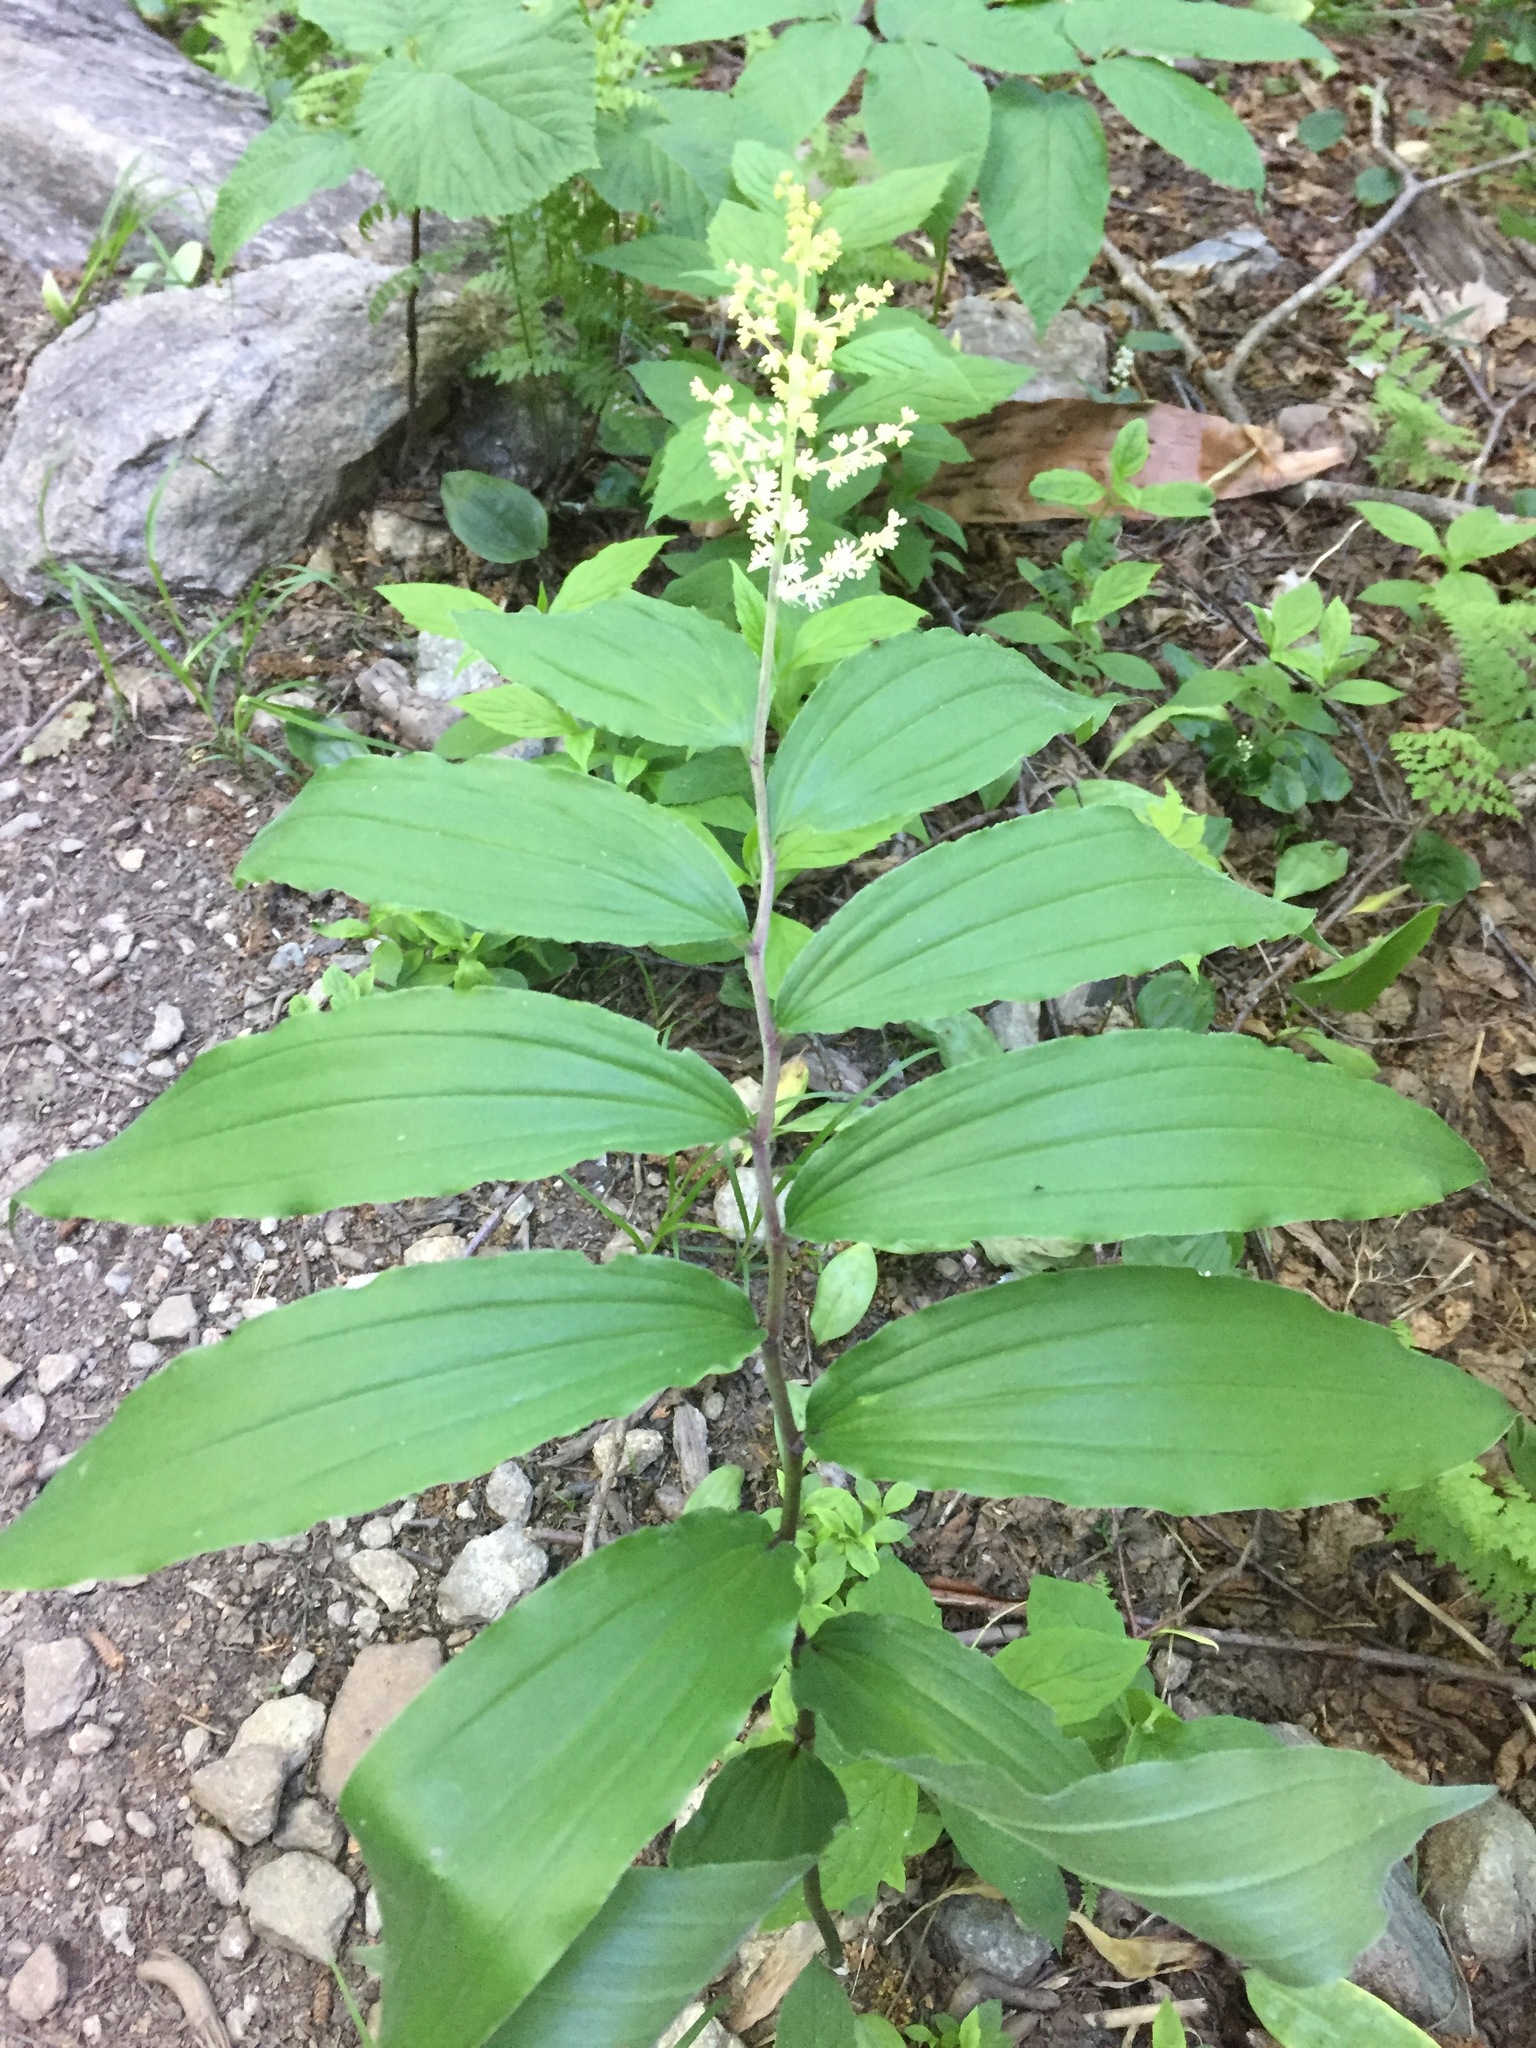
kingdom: Plantae
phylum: Tracheophyta
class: Liliopsida
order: Asparagales
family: Asparagaceae
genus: Maianthemum
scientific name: Maianthemum racemosum
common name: False spikenard
